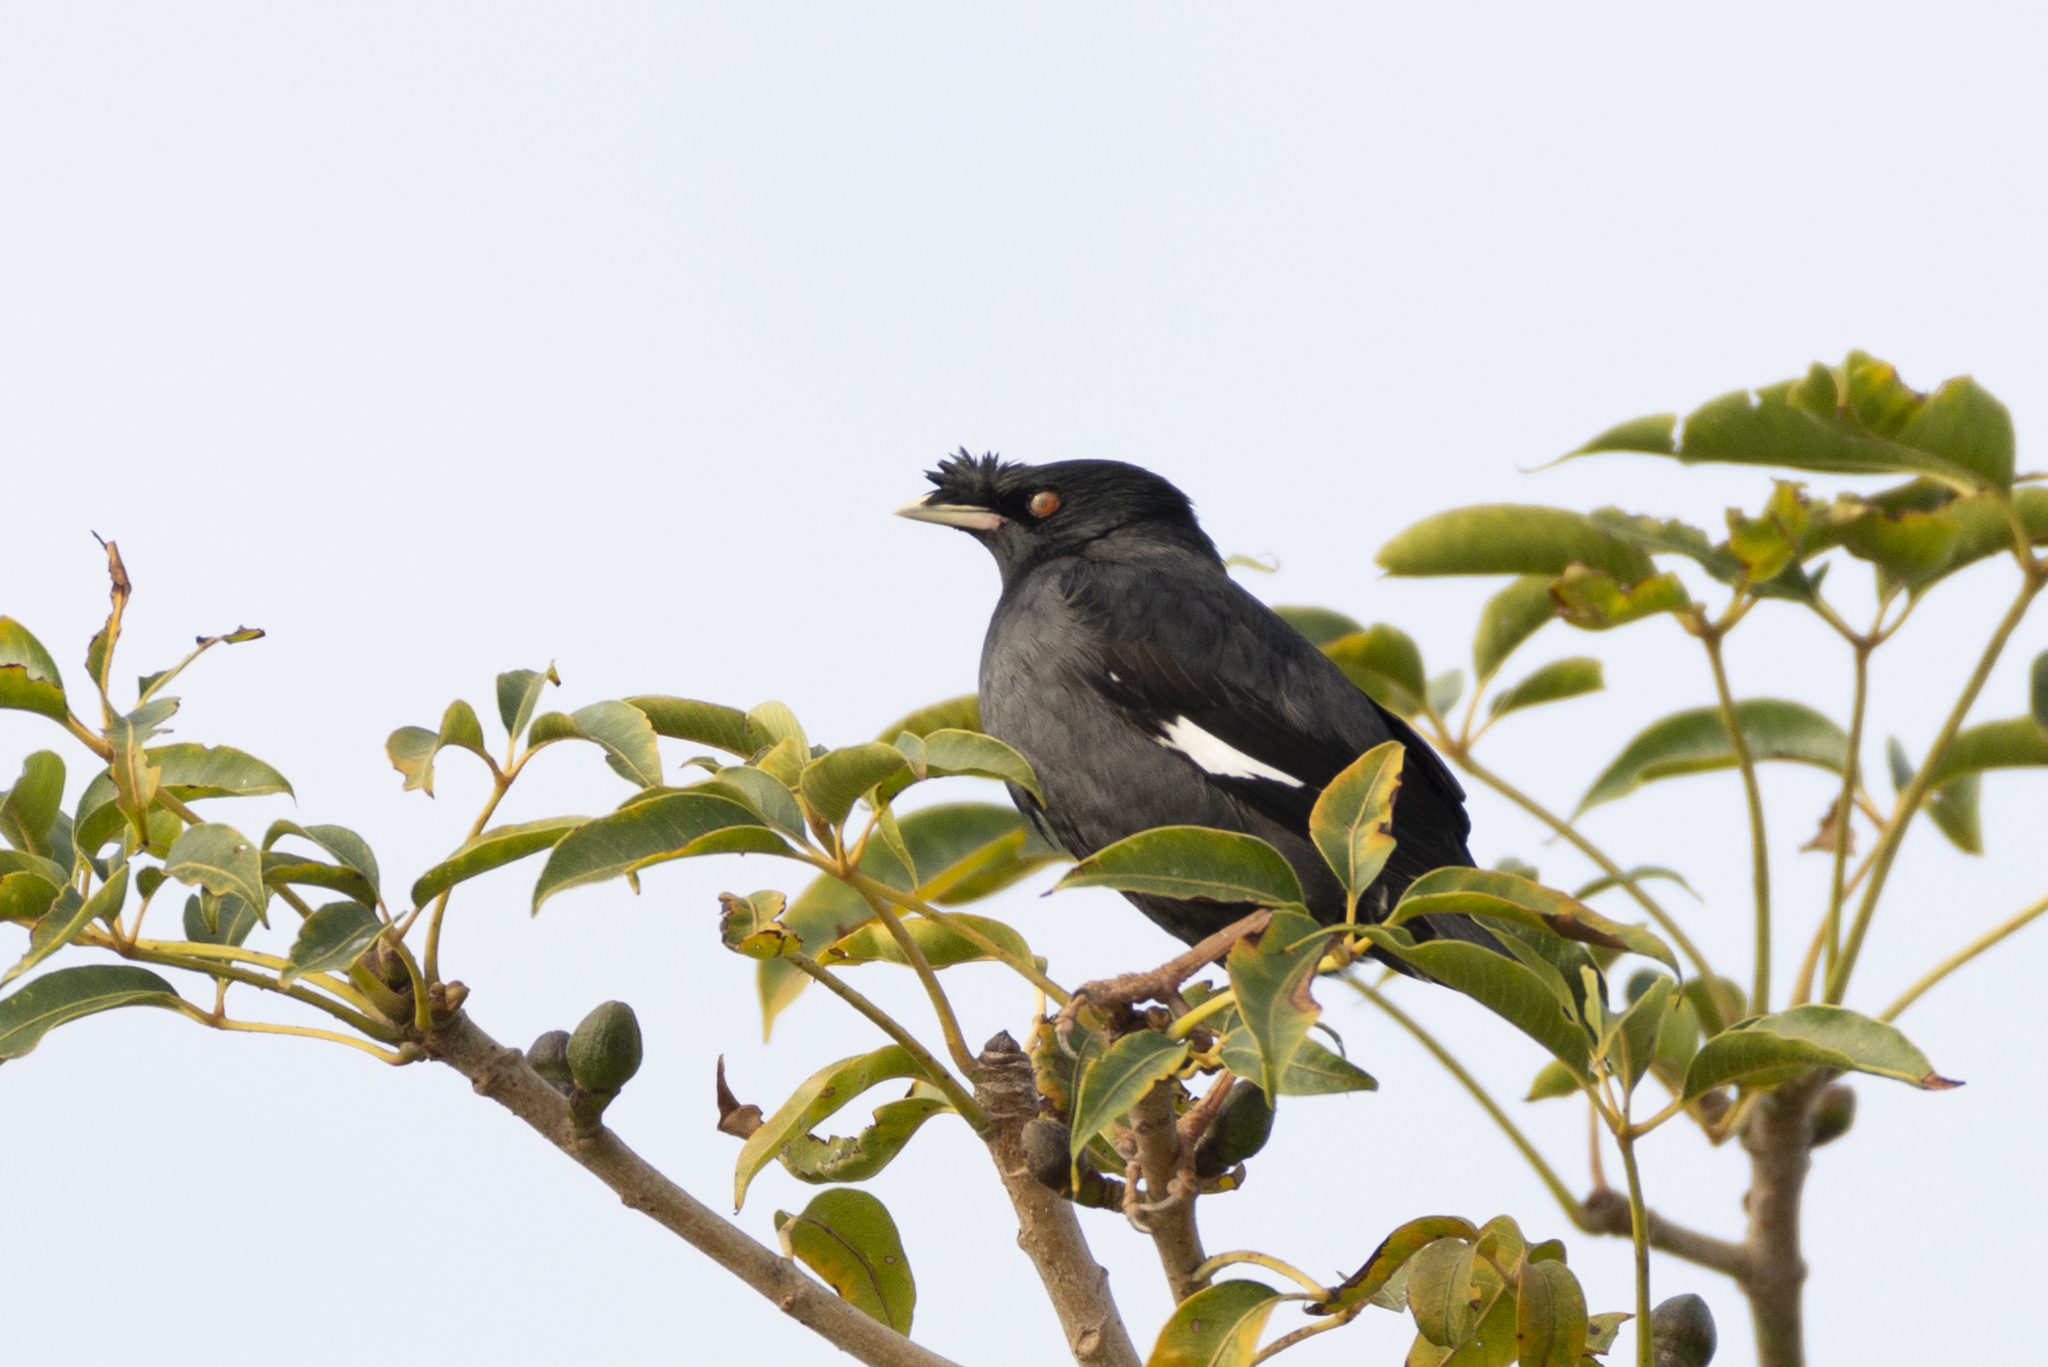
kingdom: Animalia
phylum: Chordata
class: Aves
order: Passeriformes
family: Sturnidae
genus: Acridotheres
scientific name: Acridotheres cristatellus
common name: Crested myna
